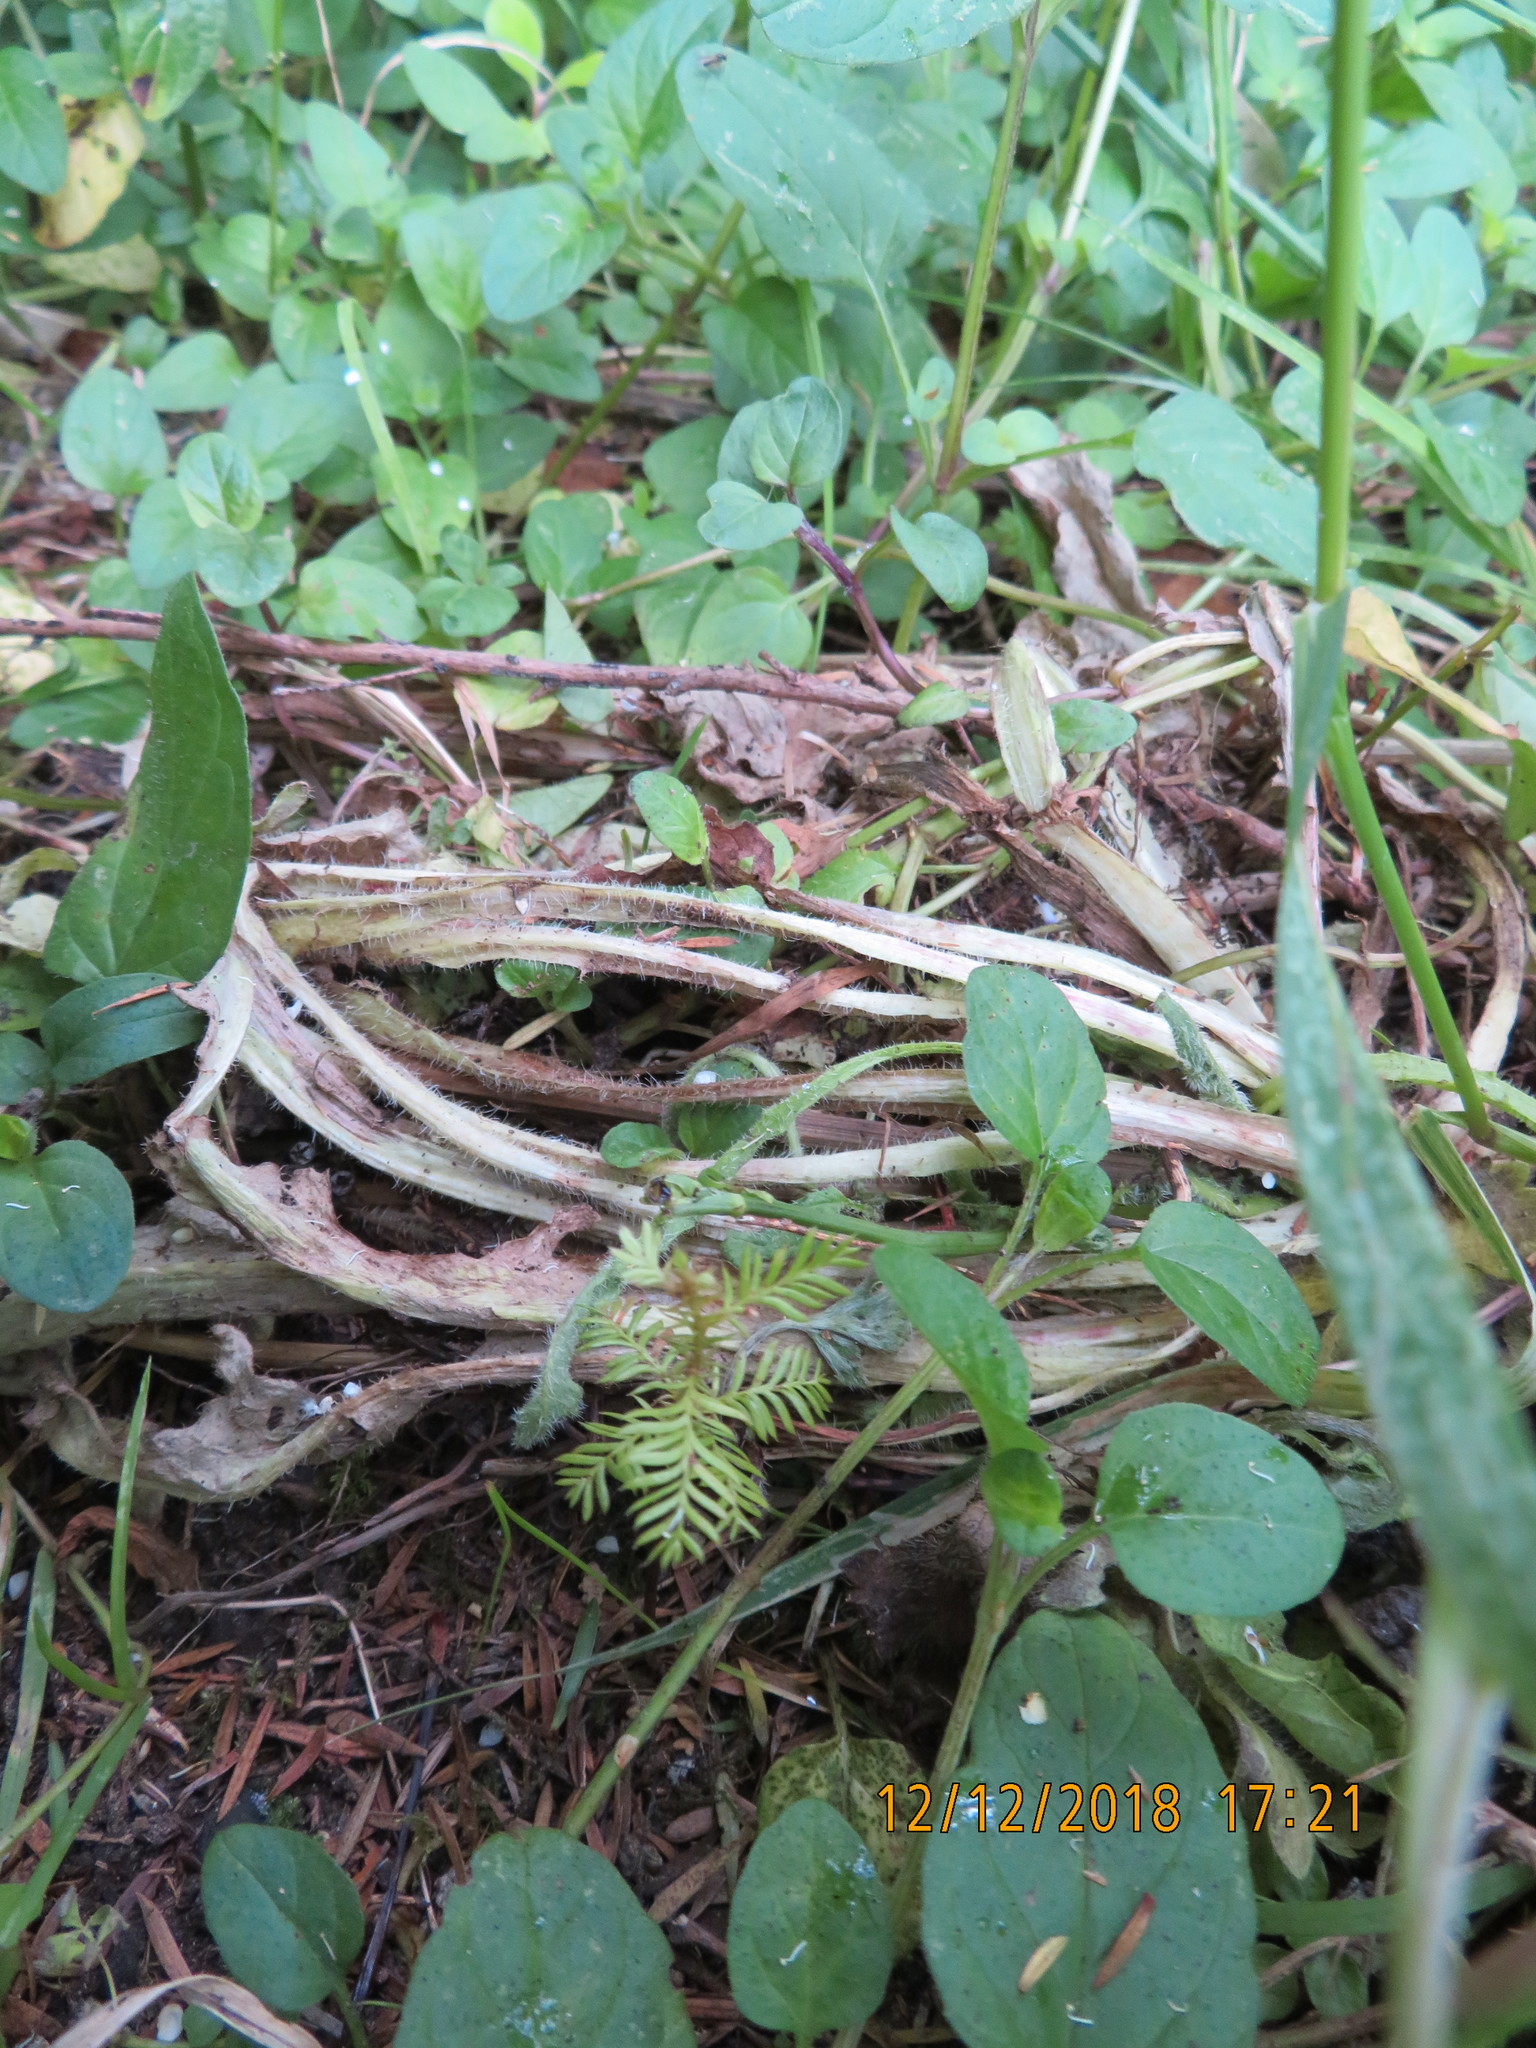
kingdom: Plantae
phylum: Tracheophyta
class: Pinopsida
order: Pinales
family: Podocarpaceae
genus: Dacrycarpus
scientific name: Dacrycarpus dacrydioides
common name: White pine
